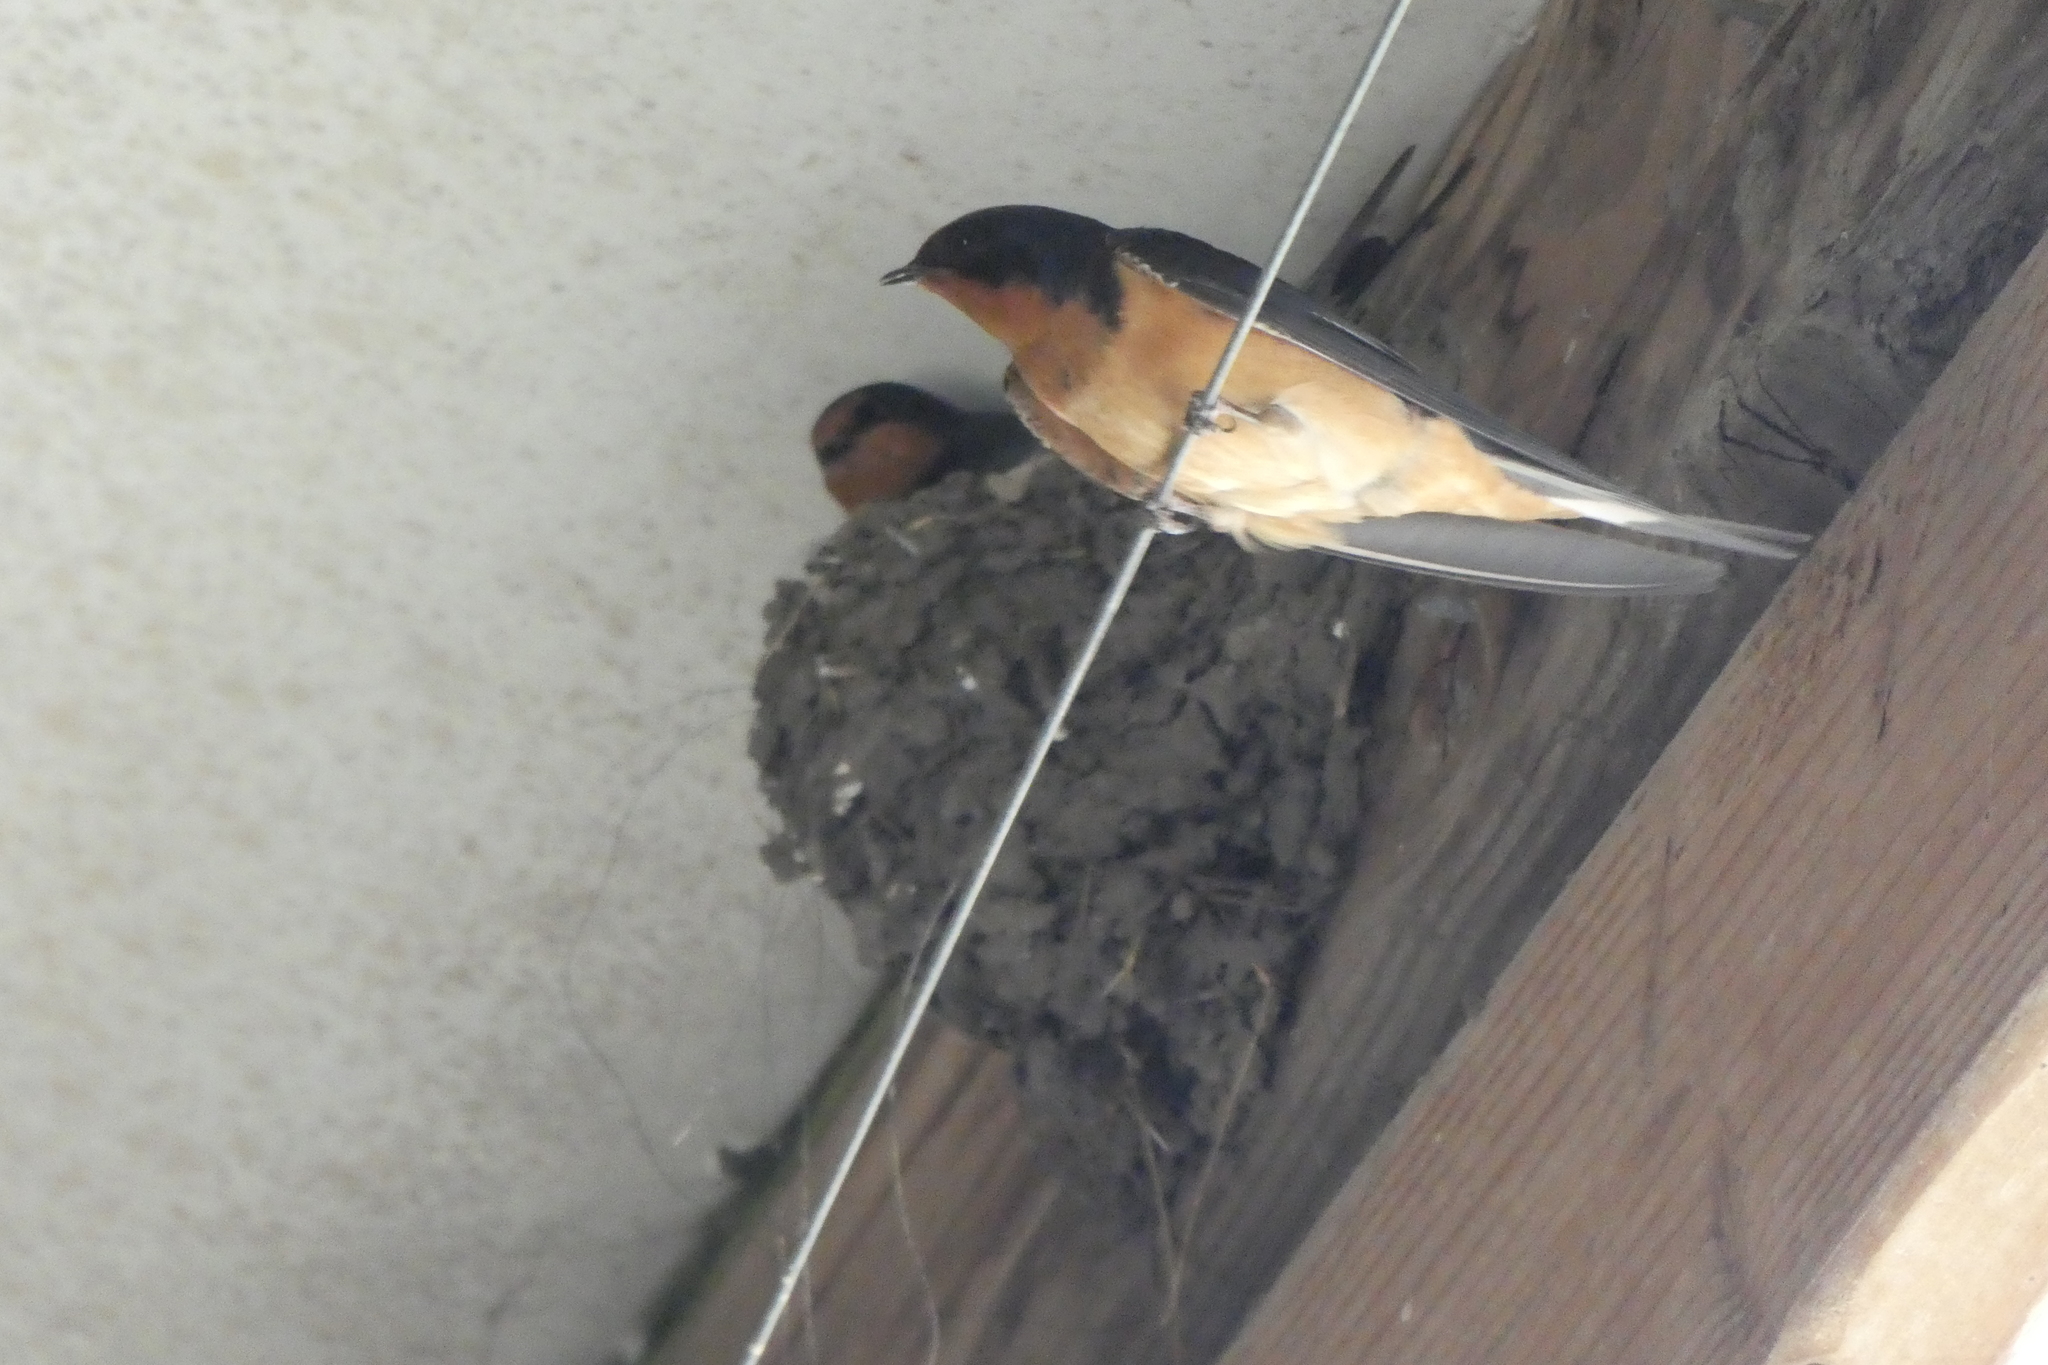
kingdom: Animalia
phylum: Chordata
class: Aves
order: Passeriformes
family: Hirundinidae
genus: Hirundo
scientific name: Hirundo rustica
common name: Barn swallow
